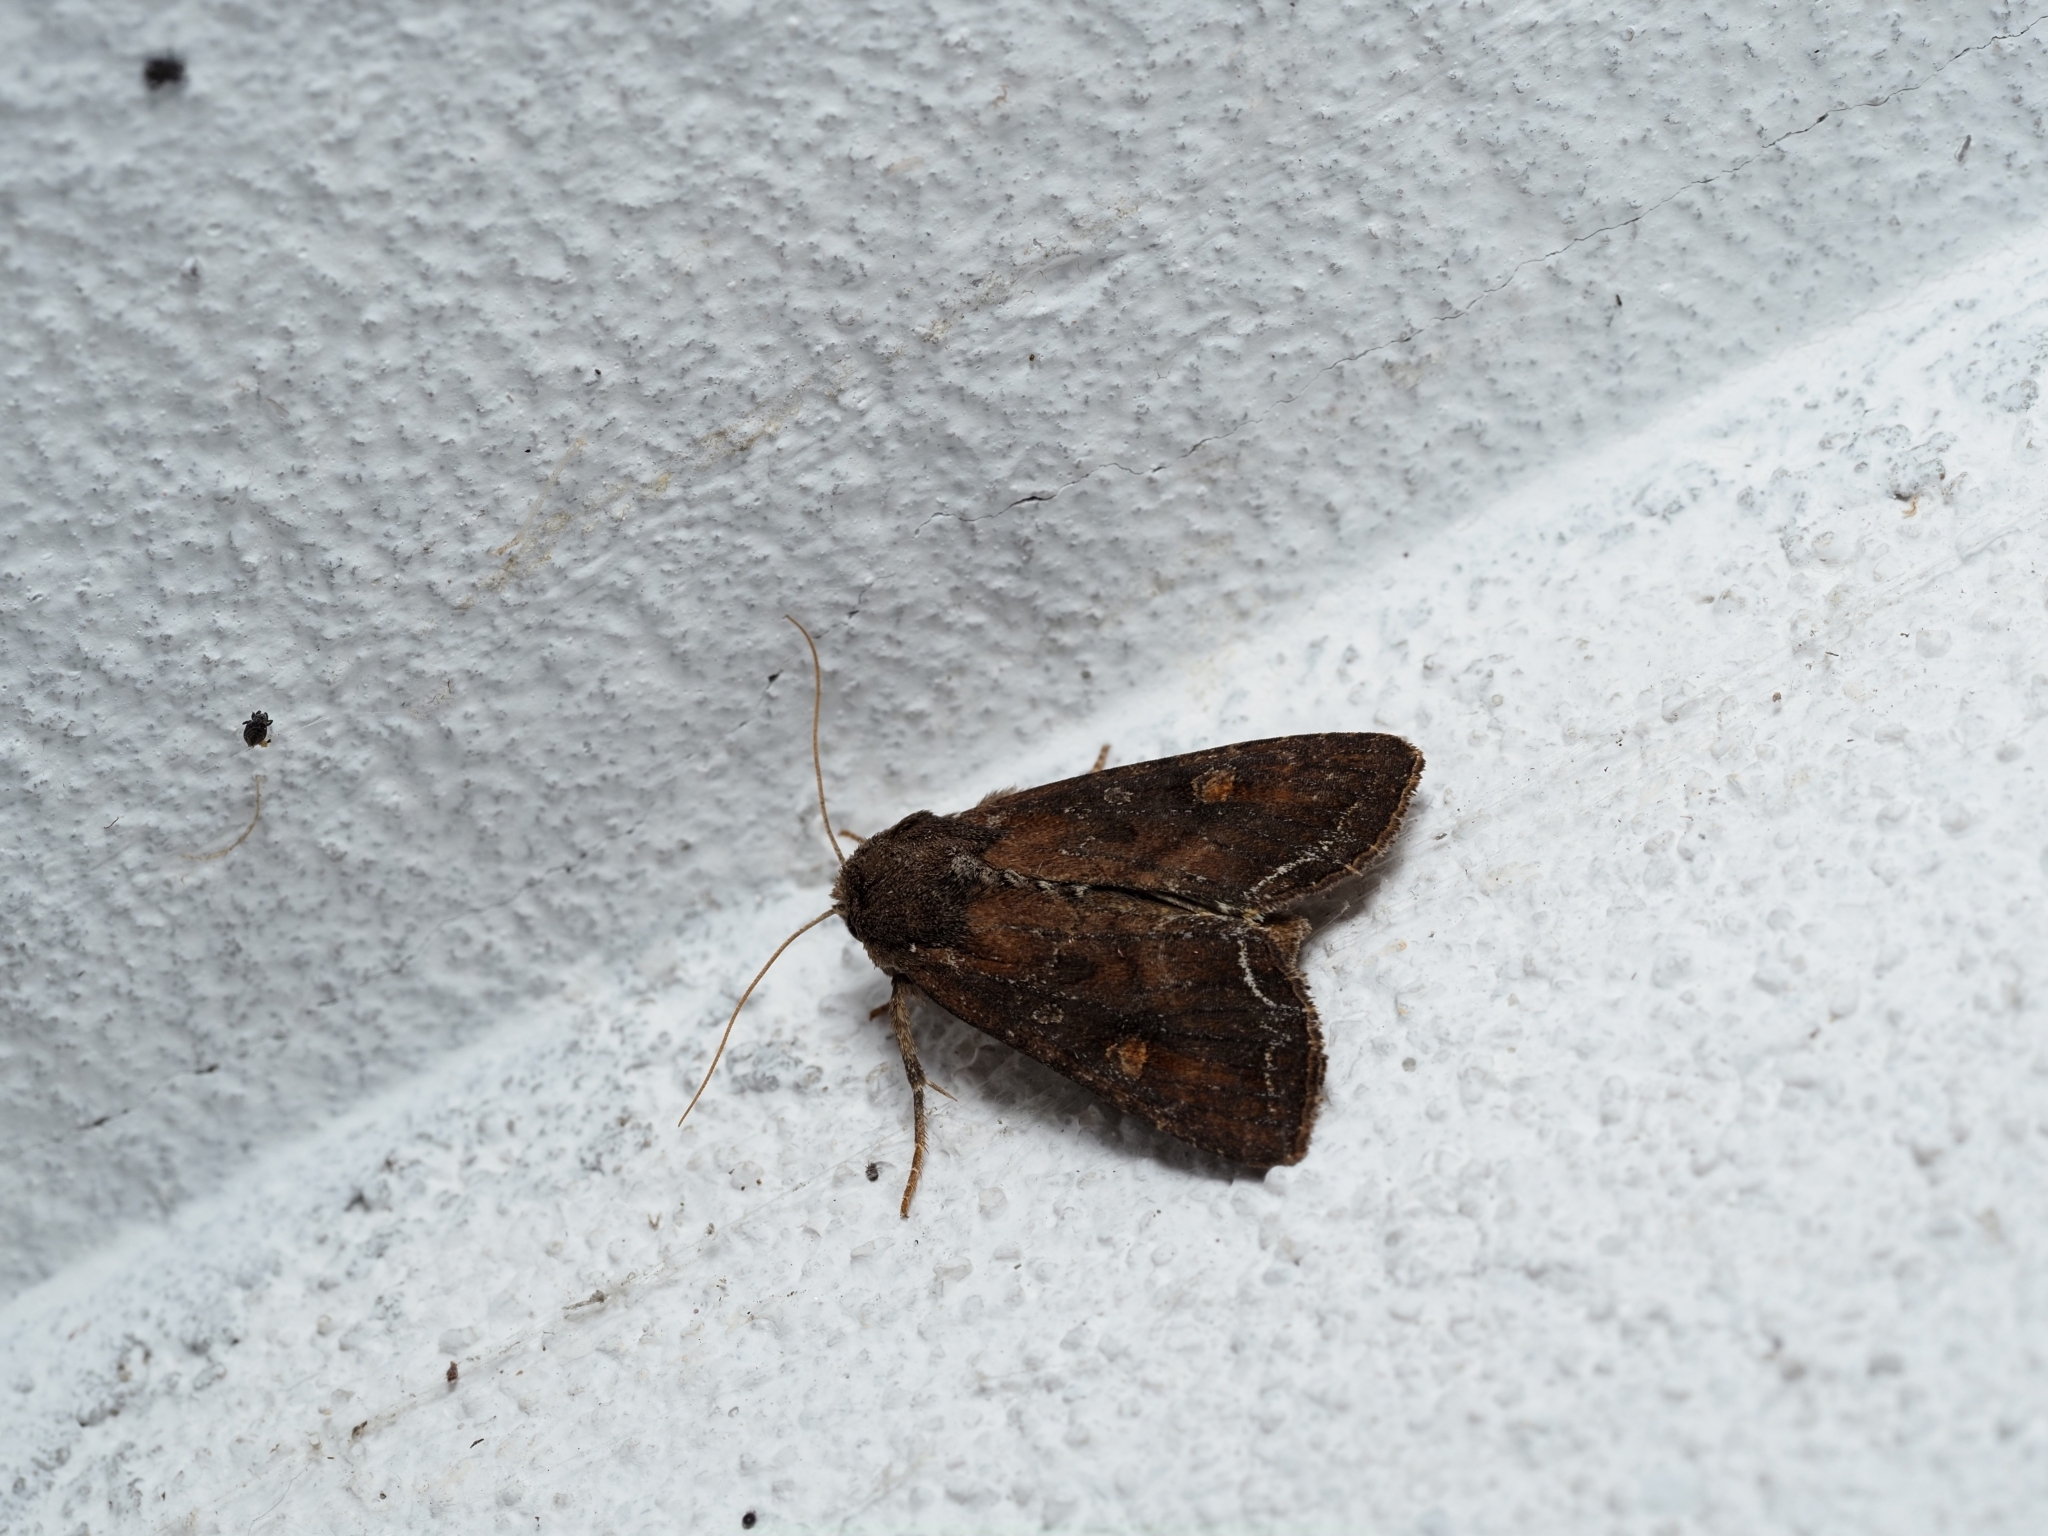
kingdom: Animalia
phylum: Arthropoda
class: Insecta
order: Lepidoptera
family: Noctuidae
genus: Lacanobia
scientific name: Lacanobia oleracea
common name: Bright-line brown-eye
